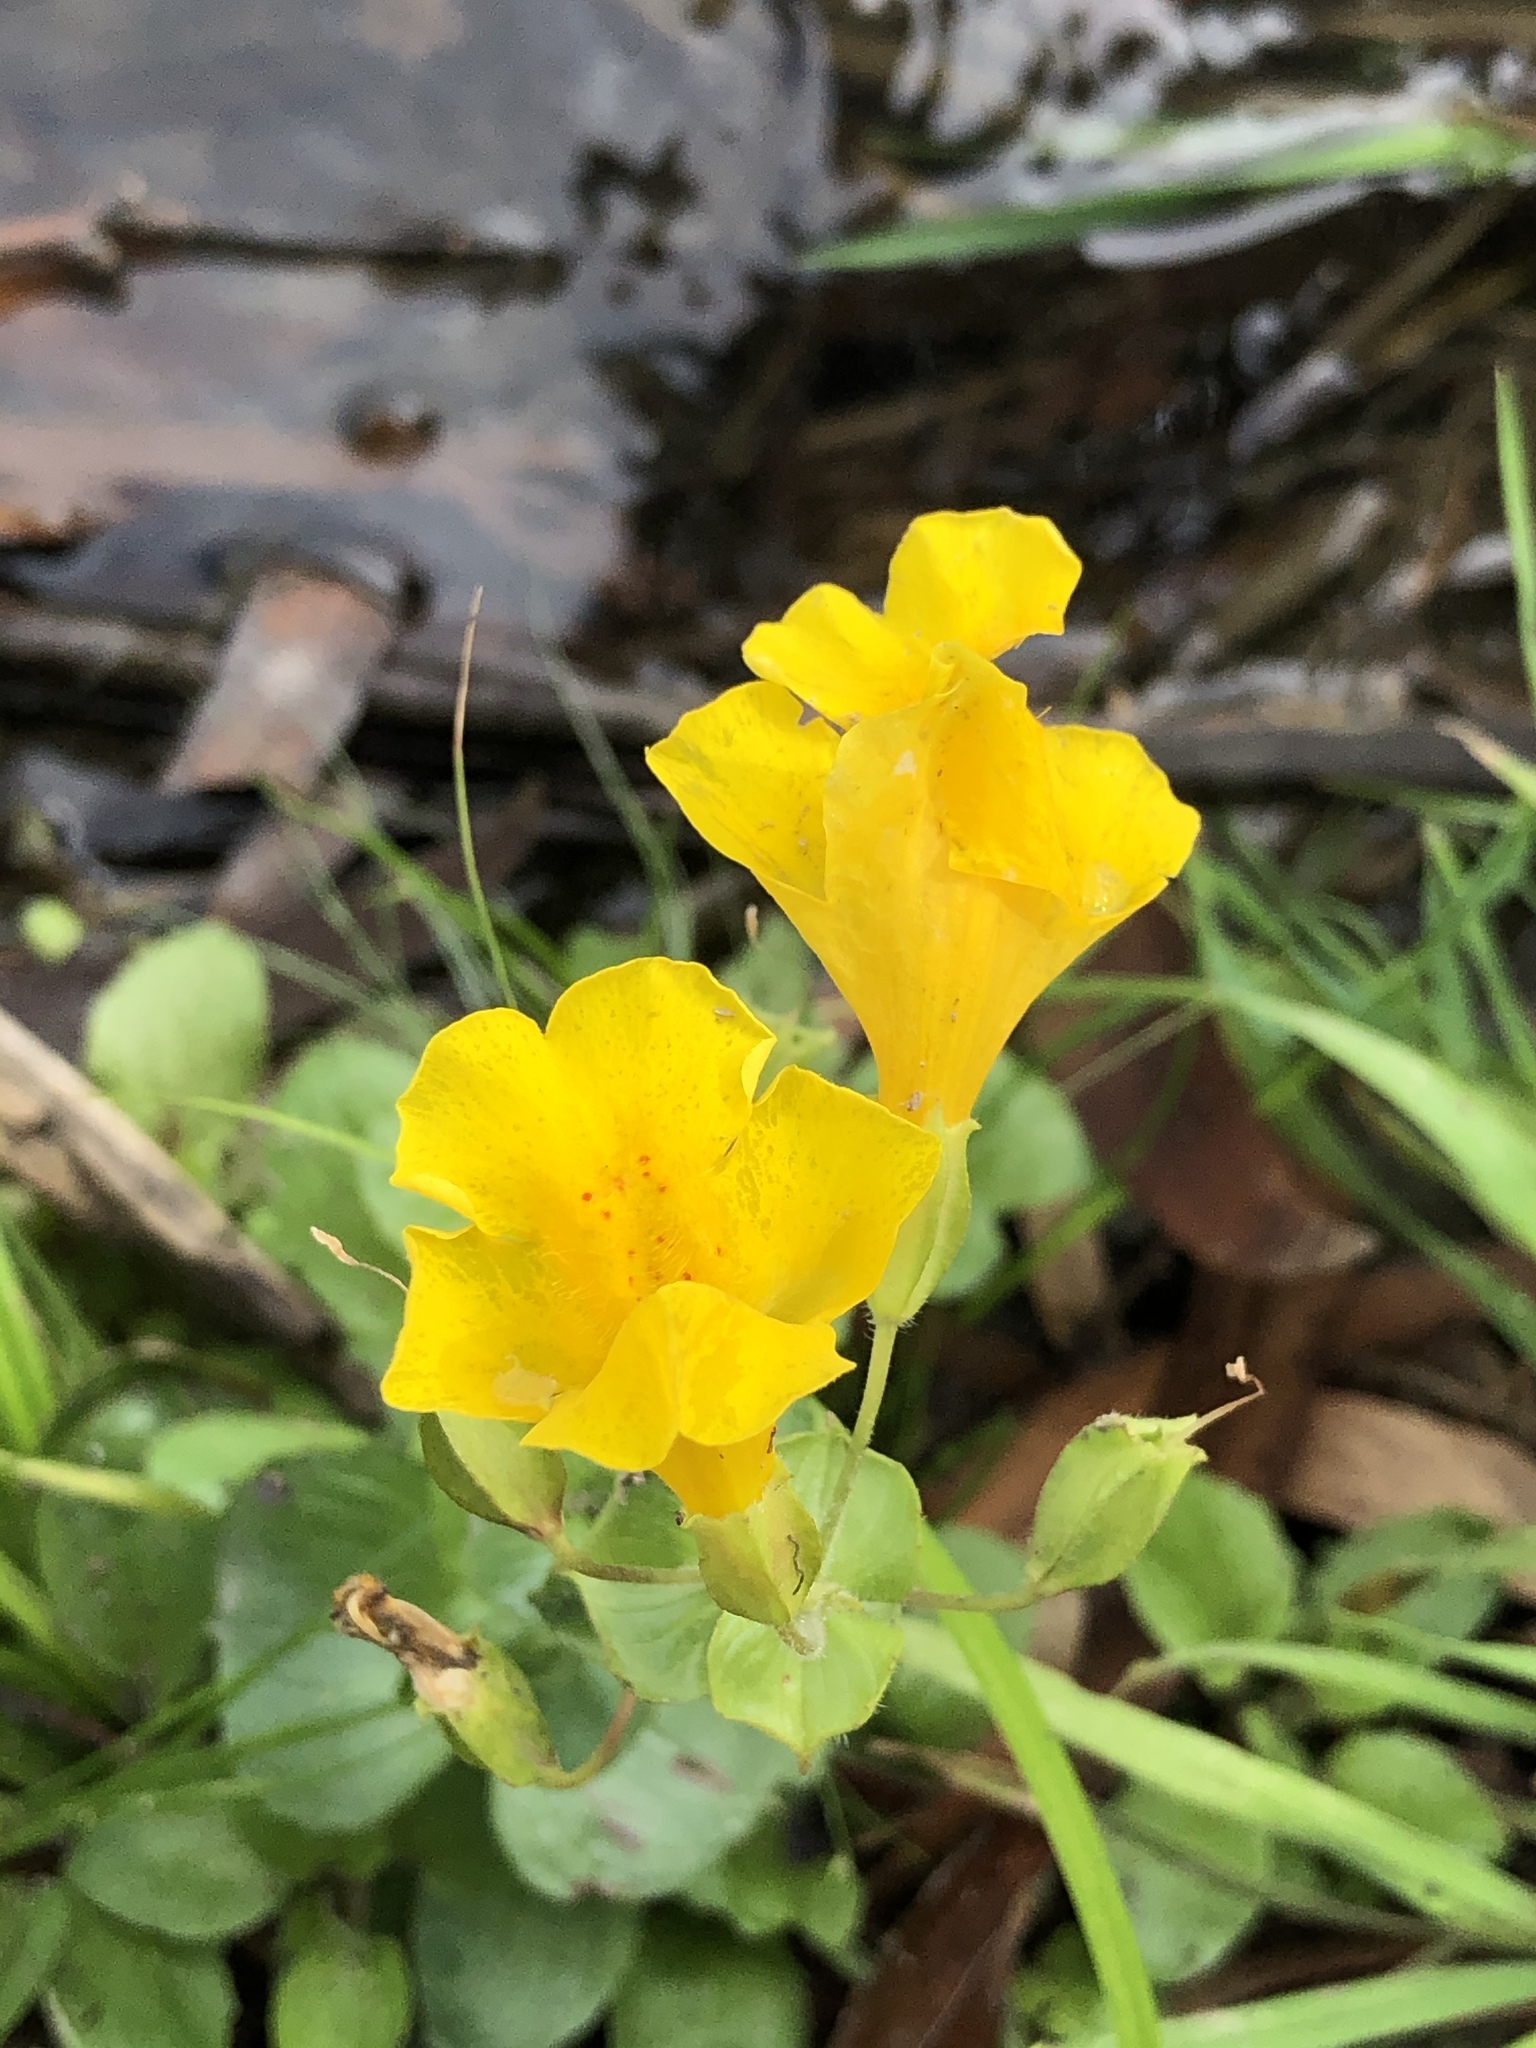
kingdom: Plantae
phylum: Tracheophyta
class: Magnoliopsida
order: Lamiales
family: Phrymaceae
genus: Erythranthe
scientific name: Erythranthe guttata
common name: Monkeyflower
